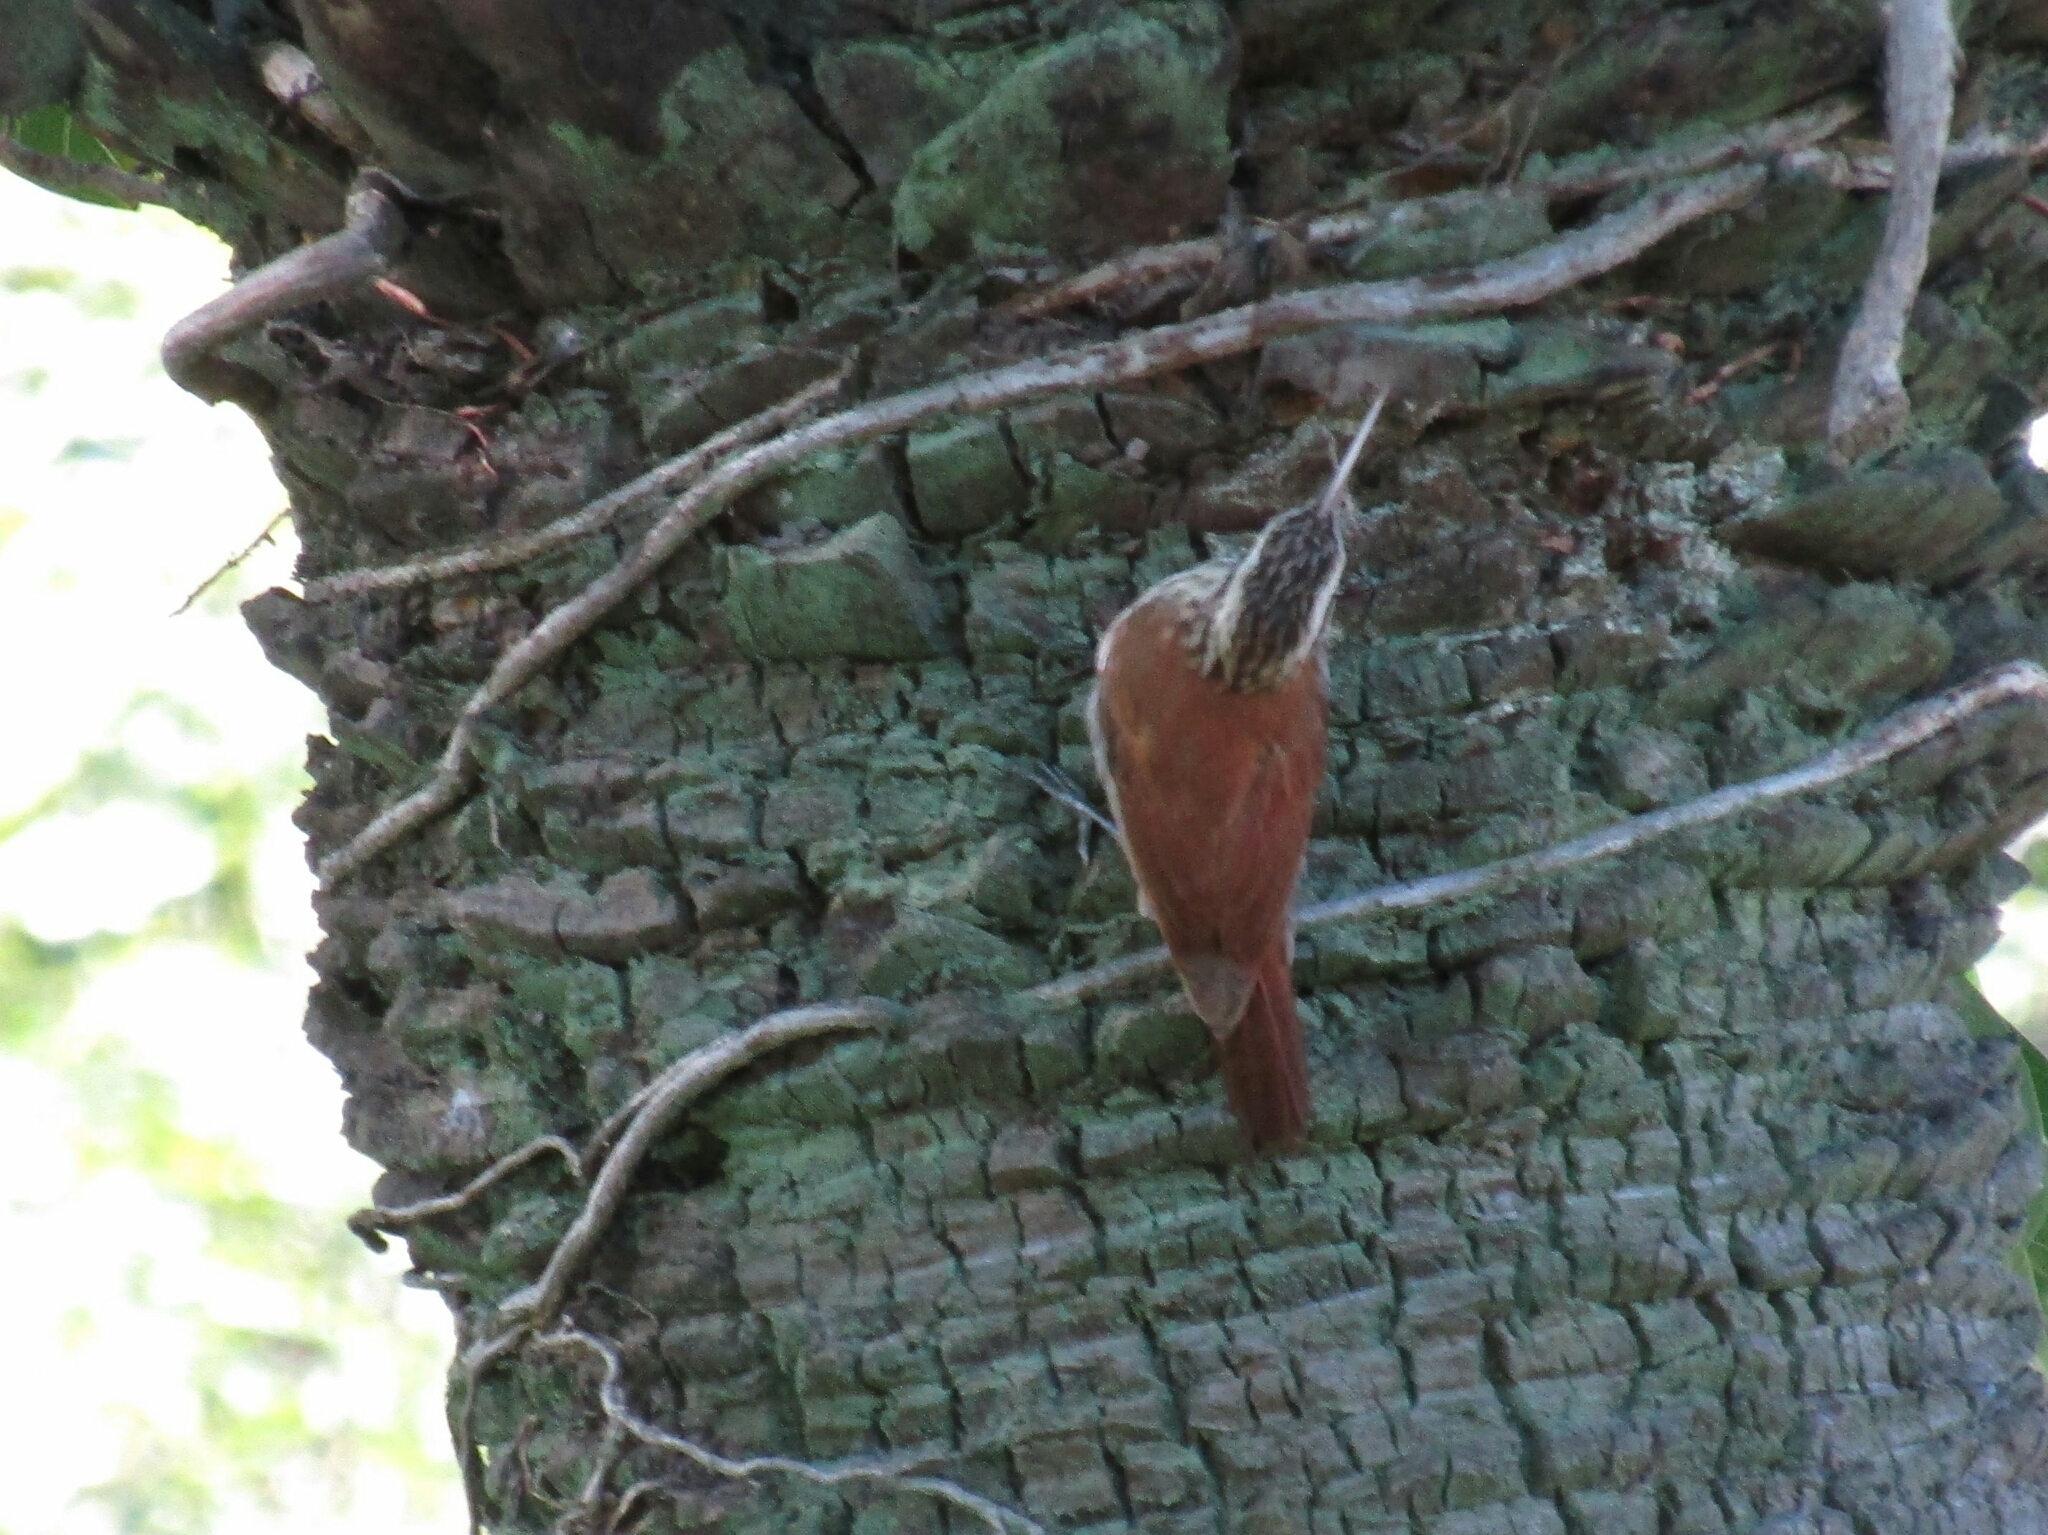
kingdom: Animalia
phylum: Chordata
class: Aves
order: Passeriformes
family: Furnariidae
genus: Lepidocolaptes
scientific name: Lepidocolaptes angustirostris
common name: Narrow-billed woodcreeper
